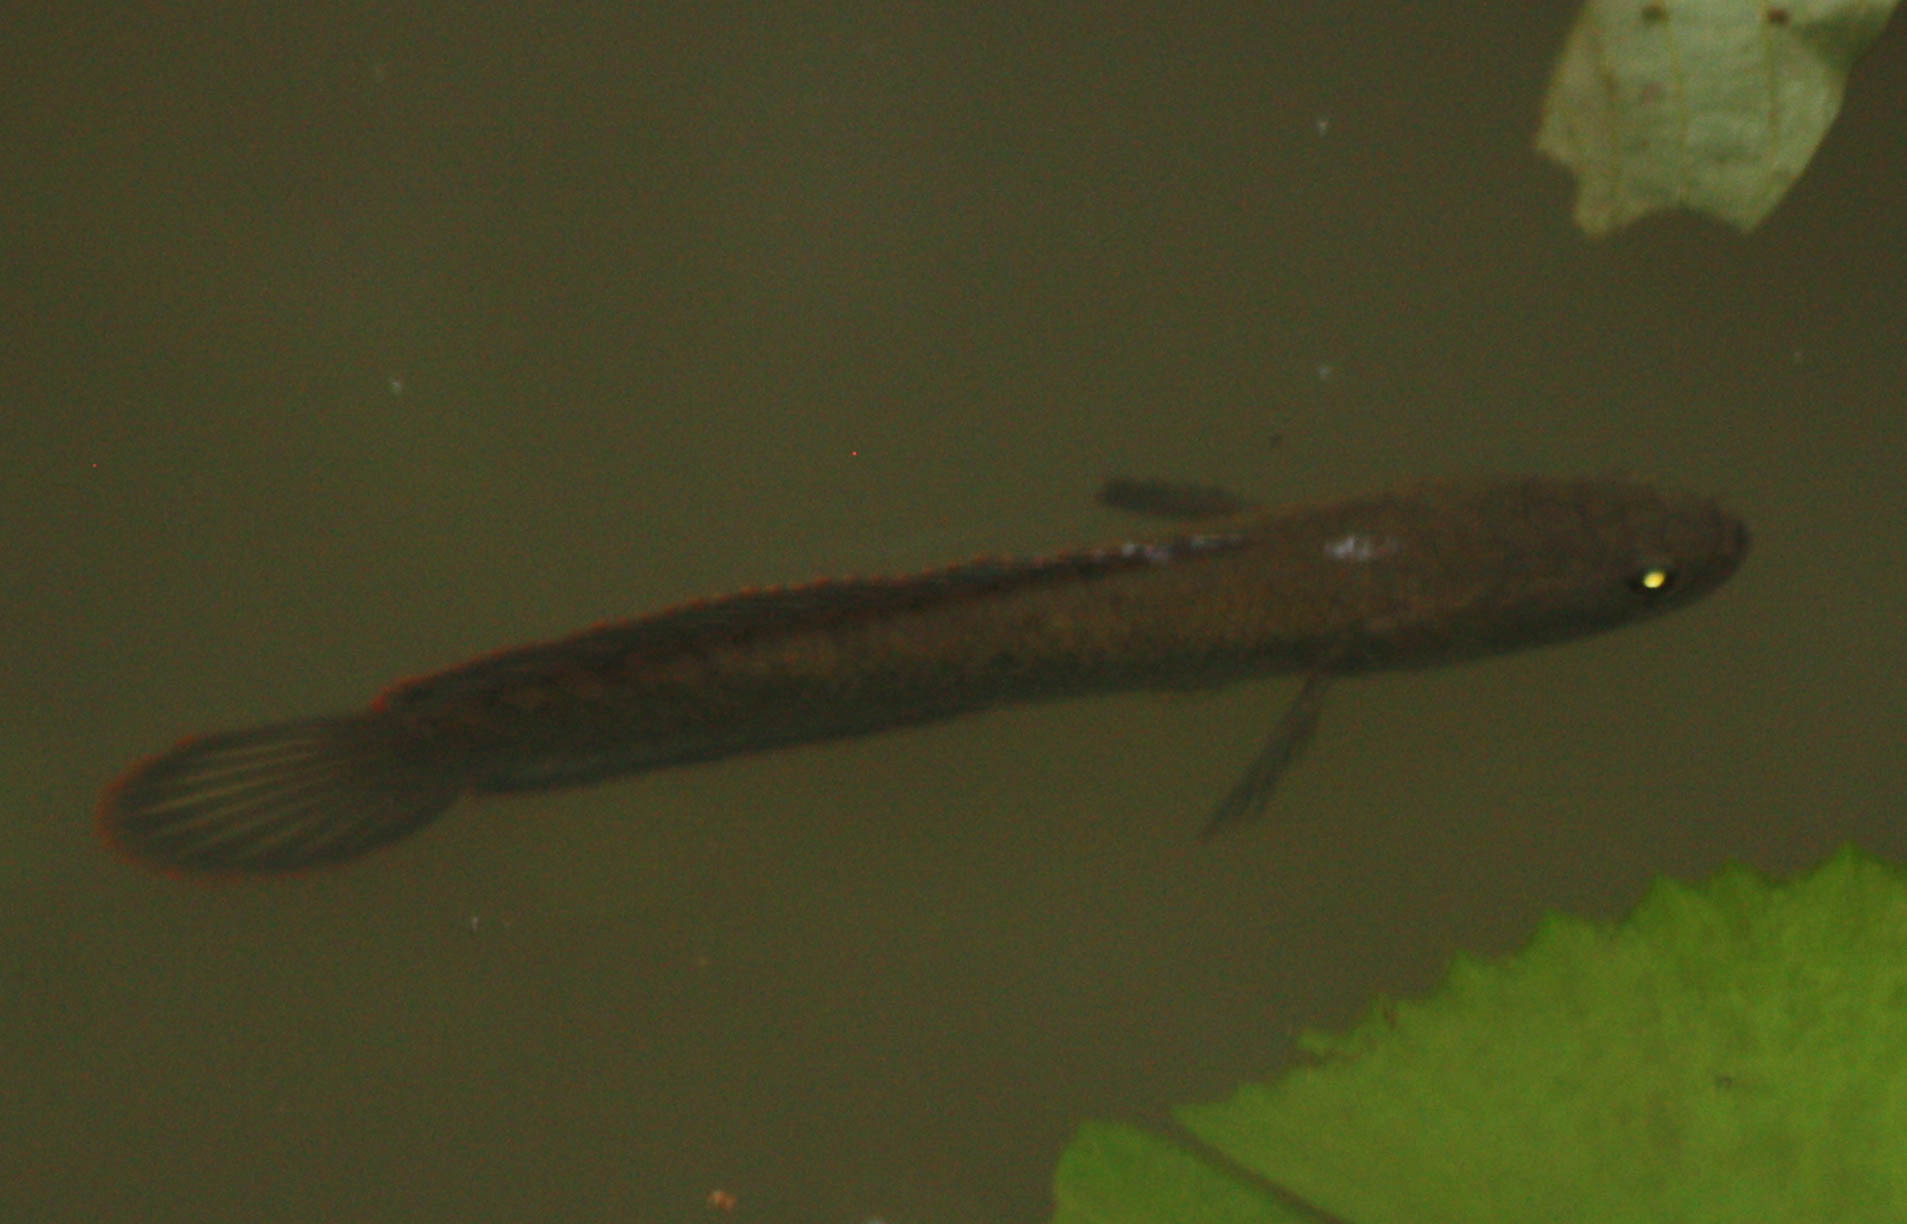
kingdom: Animalia
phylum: Chordata
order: Perciformes
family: Channidae
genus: Channa
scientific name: Channa gachua
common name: Dwarf snakehead
